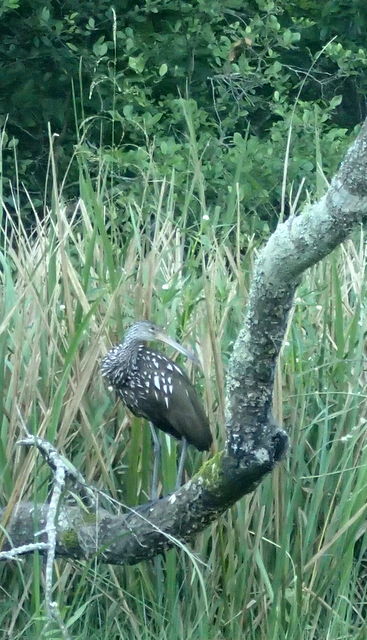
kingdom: Animalia
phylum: Chordata
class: Aves
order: Gruiformes
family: Aramidae
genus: Aramus
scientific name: Aramus guarauna
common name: Limpkin
